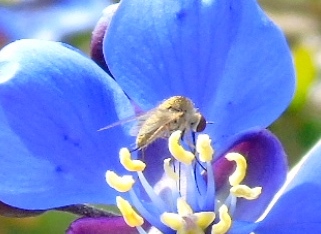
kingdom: Animalia
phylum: Arthropoda
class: Insecta
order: Diptera
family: Bombyliidae
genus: Geron
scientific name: Geron
